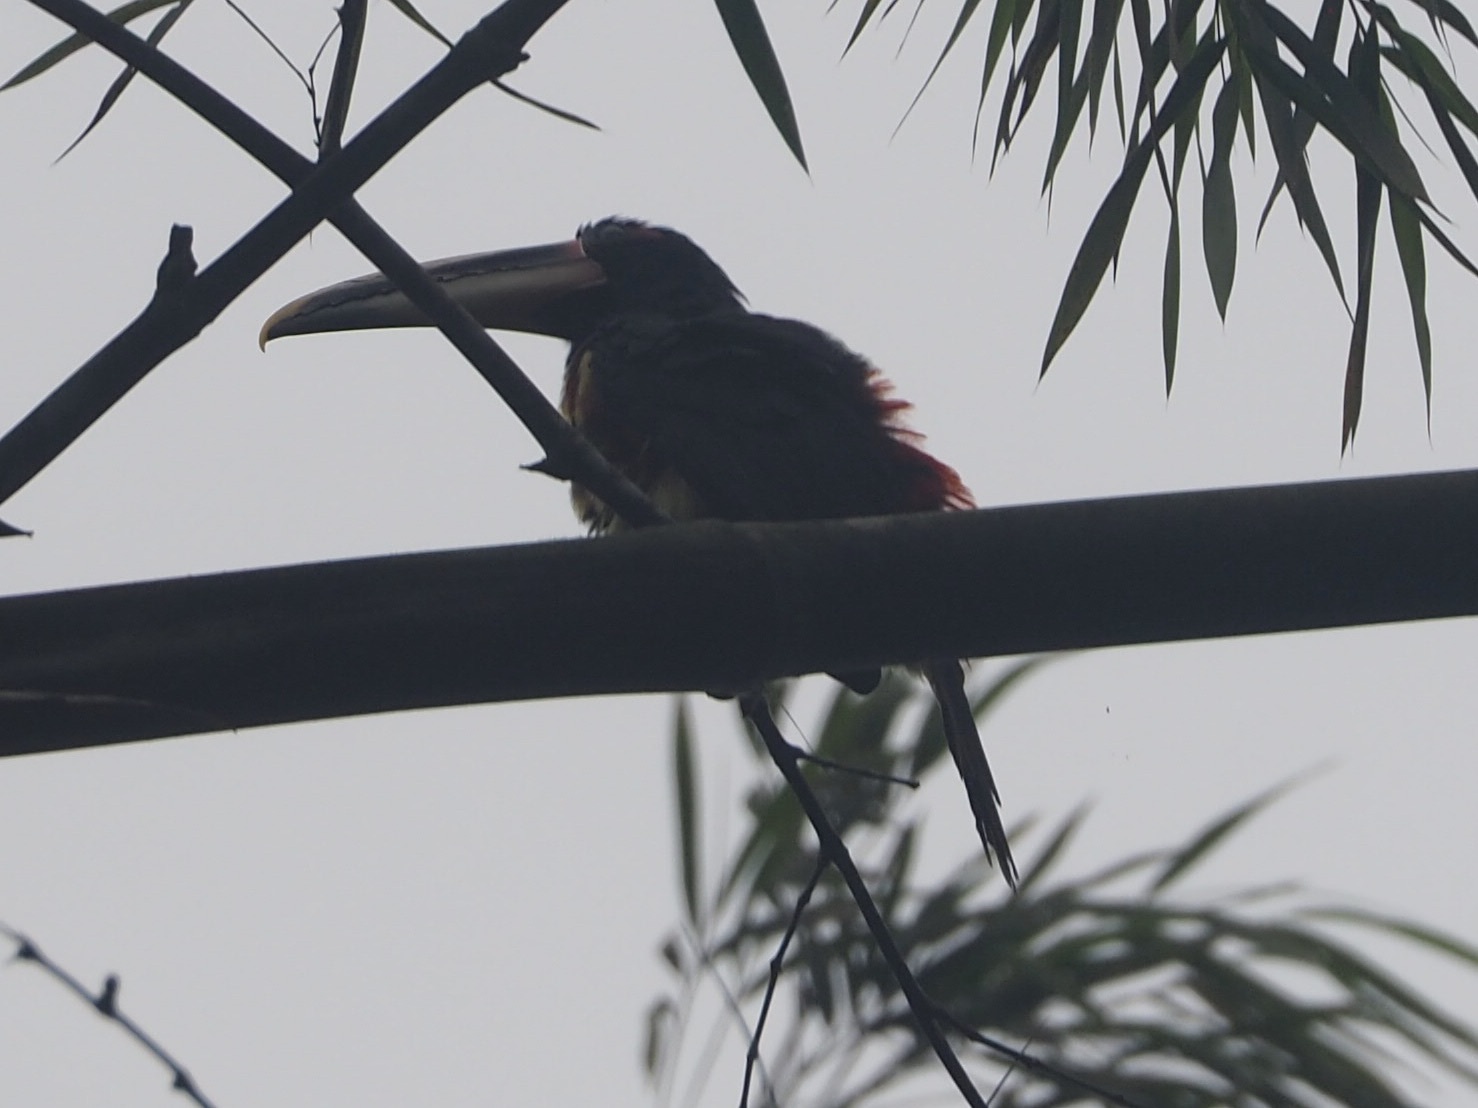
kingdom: Animalia
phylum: Chordata
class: Aves
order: Piciformes
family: Ramphastidae
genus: Pteroglossus
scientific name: Pteroglossus torquatus
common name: Collared aracari
